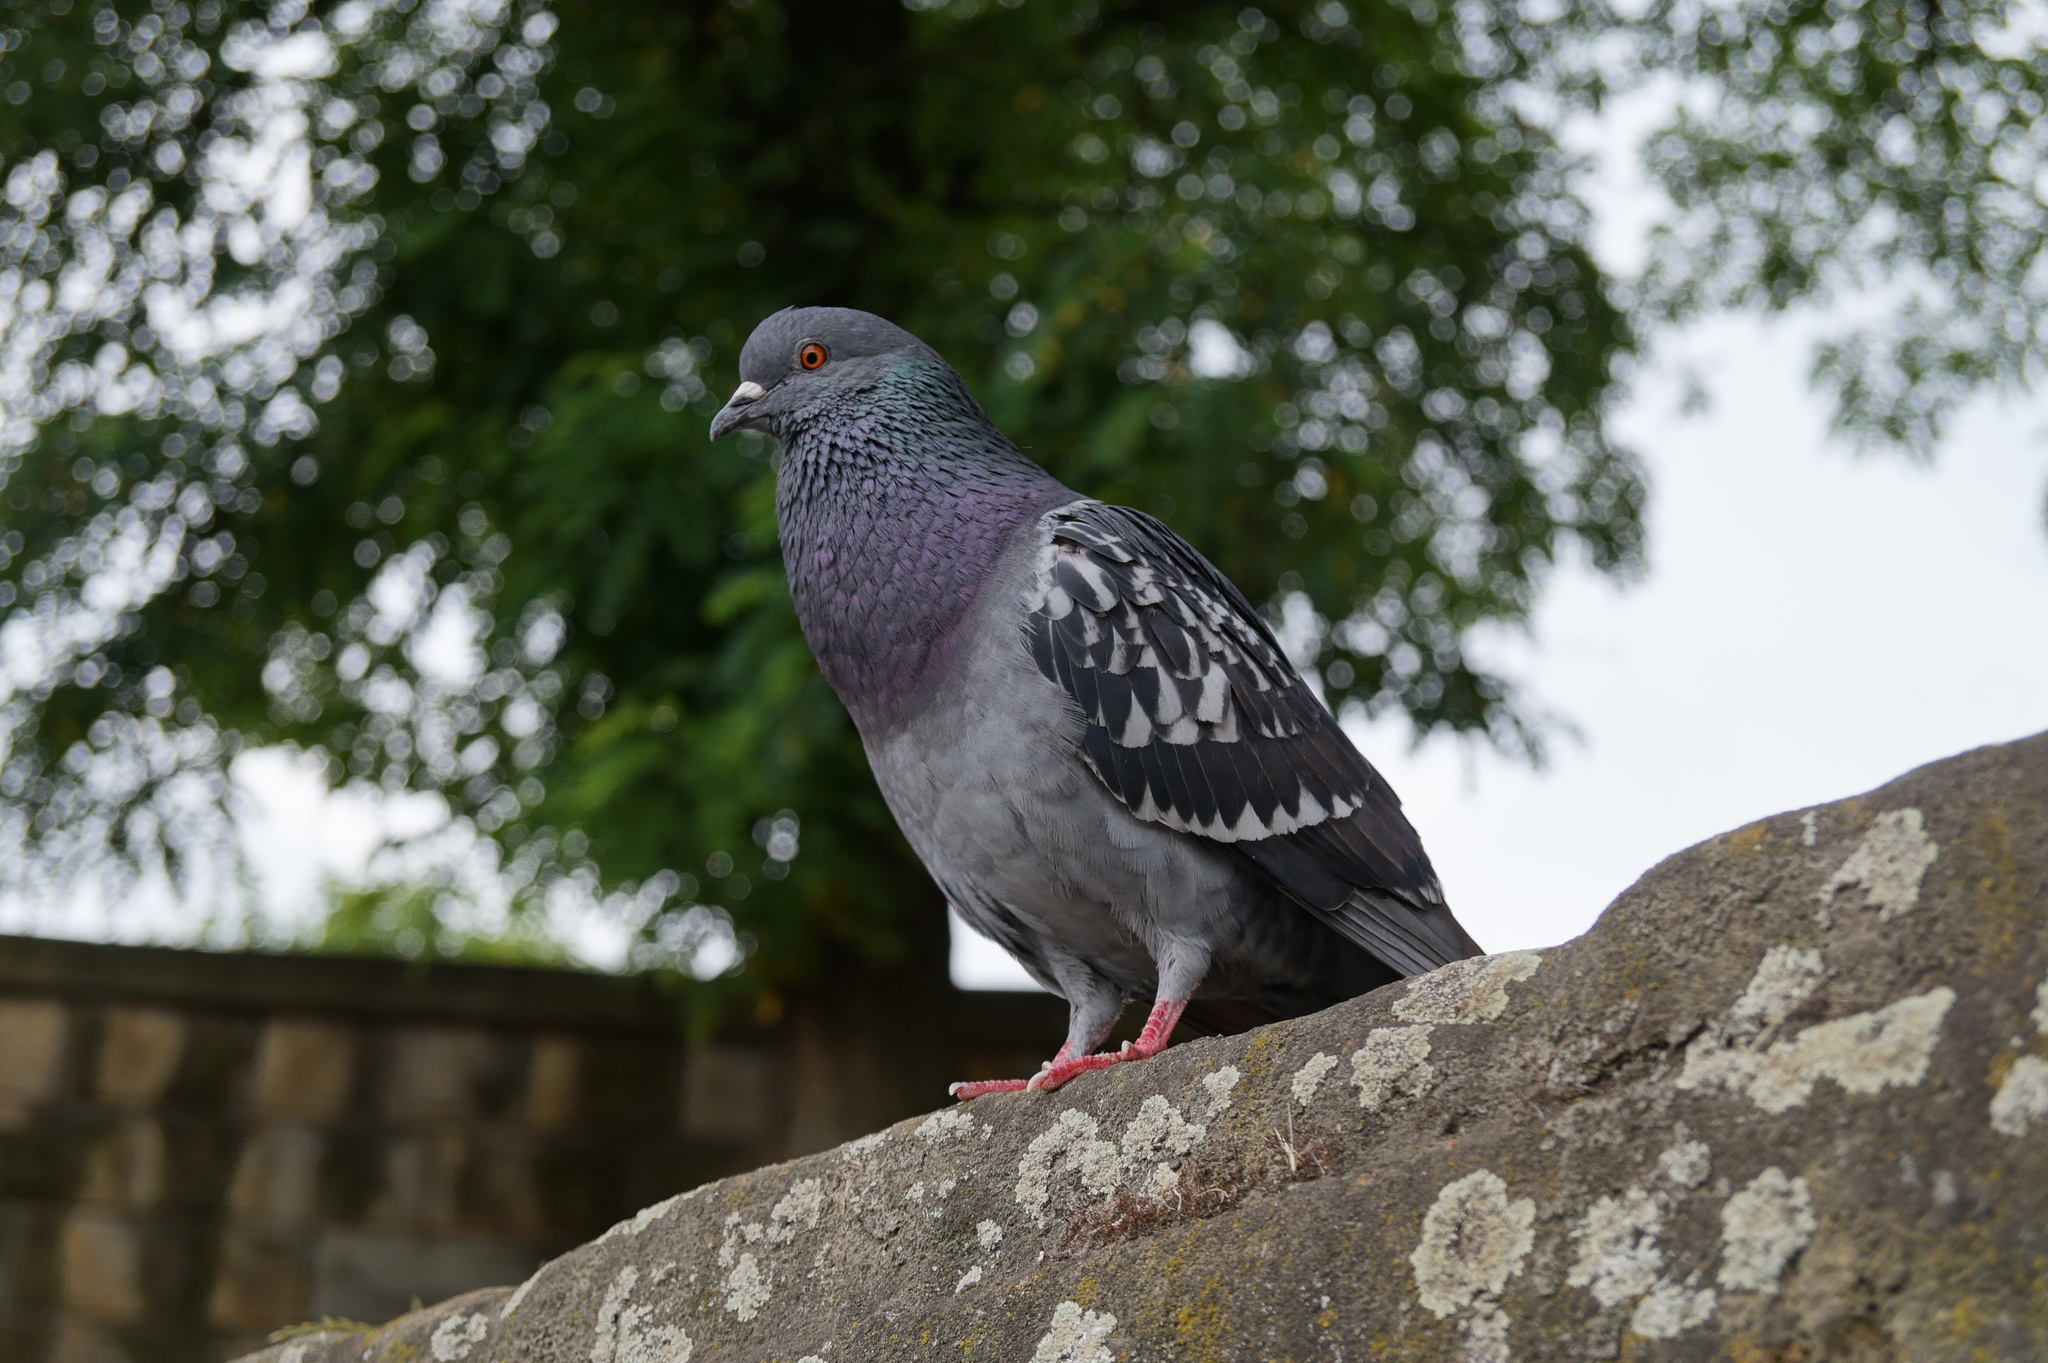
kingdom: Animalia
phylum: Chordata
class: Aves
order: Columbiformes
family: Columbidae
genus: Columba
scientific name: Columba livia
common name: Rock pigeon
